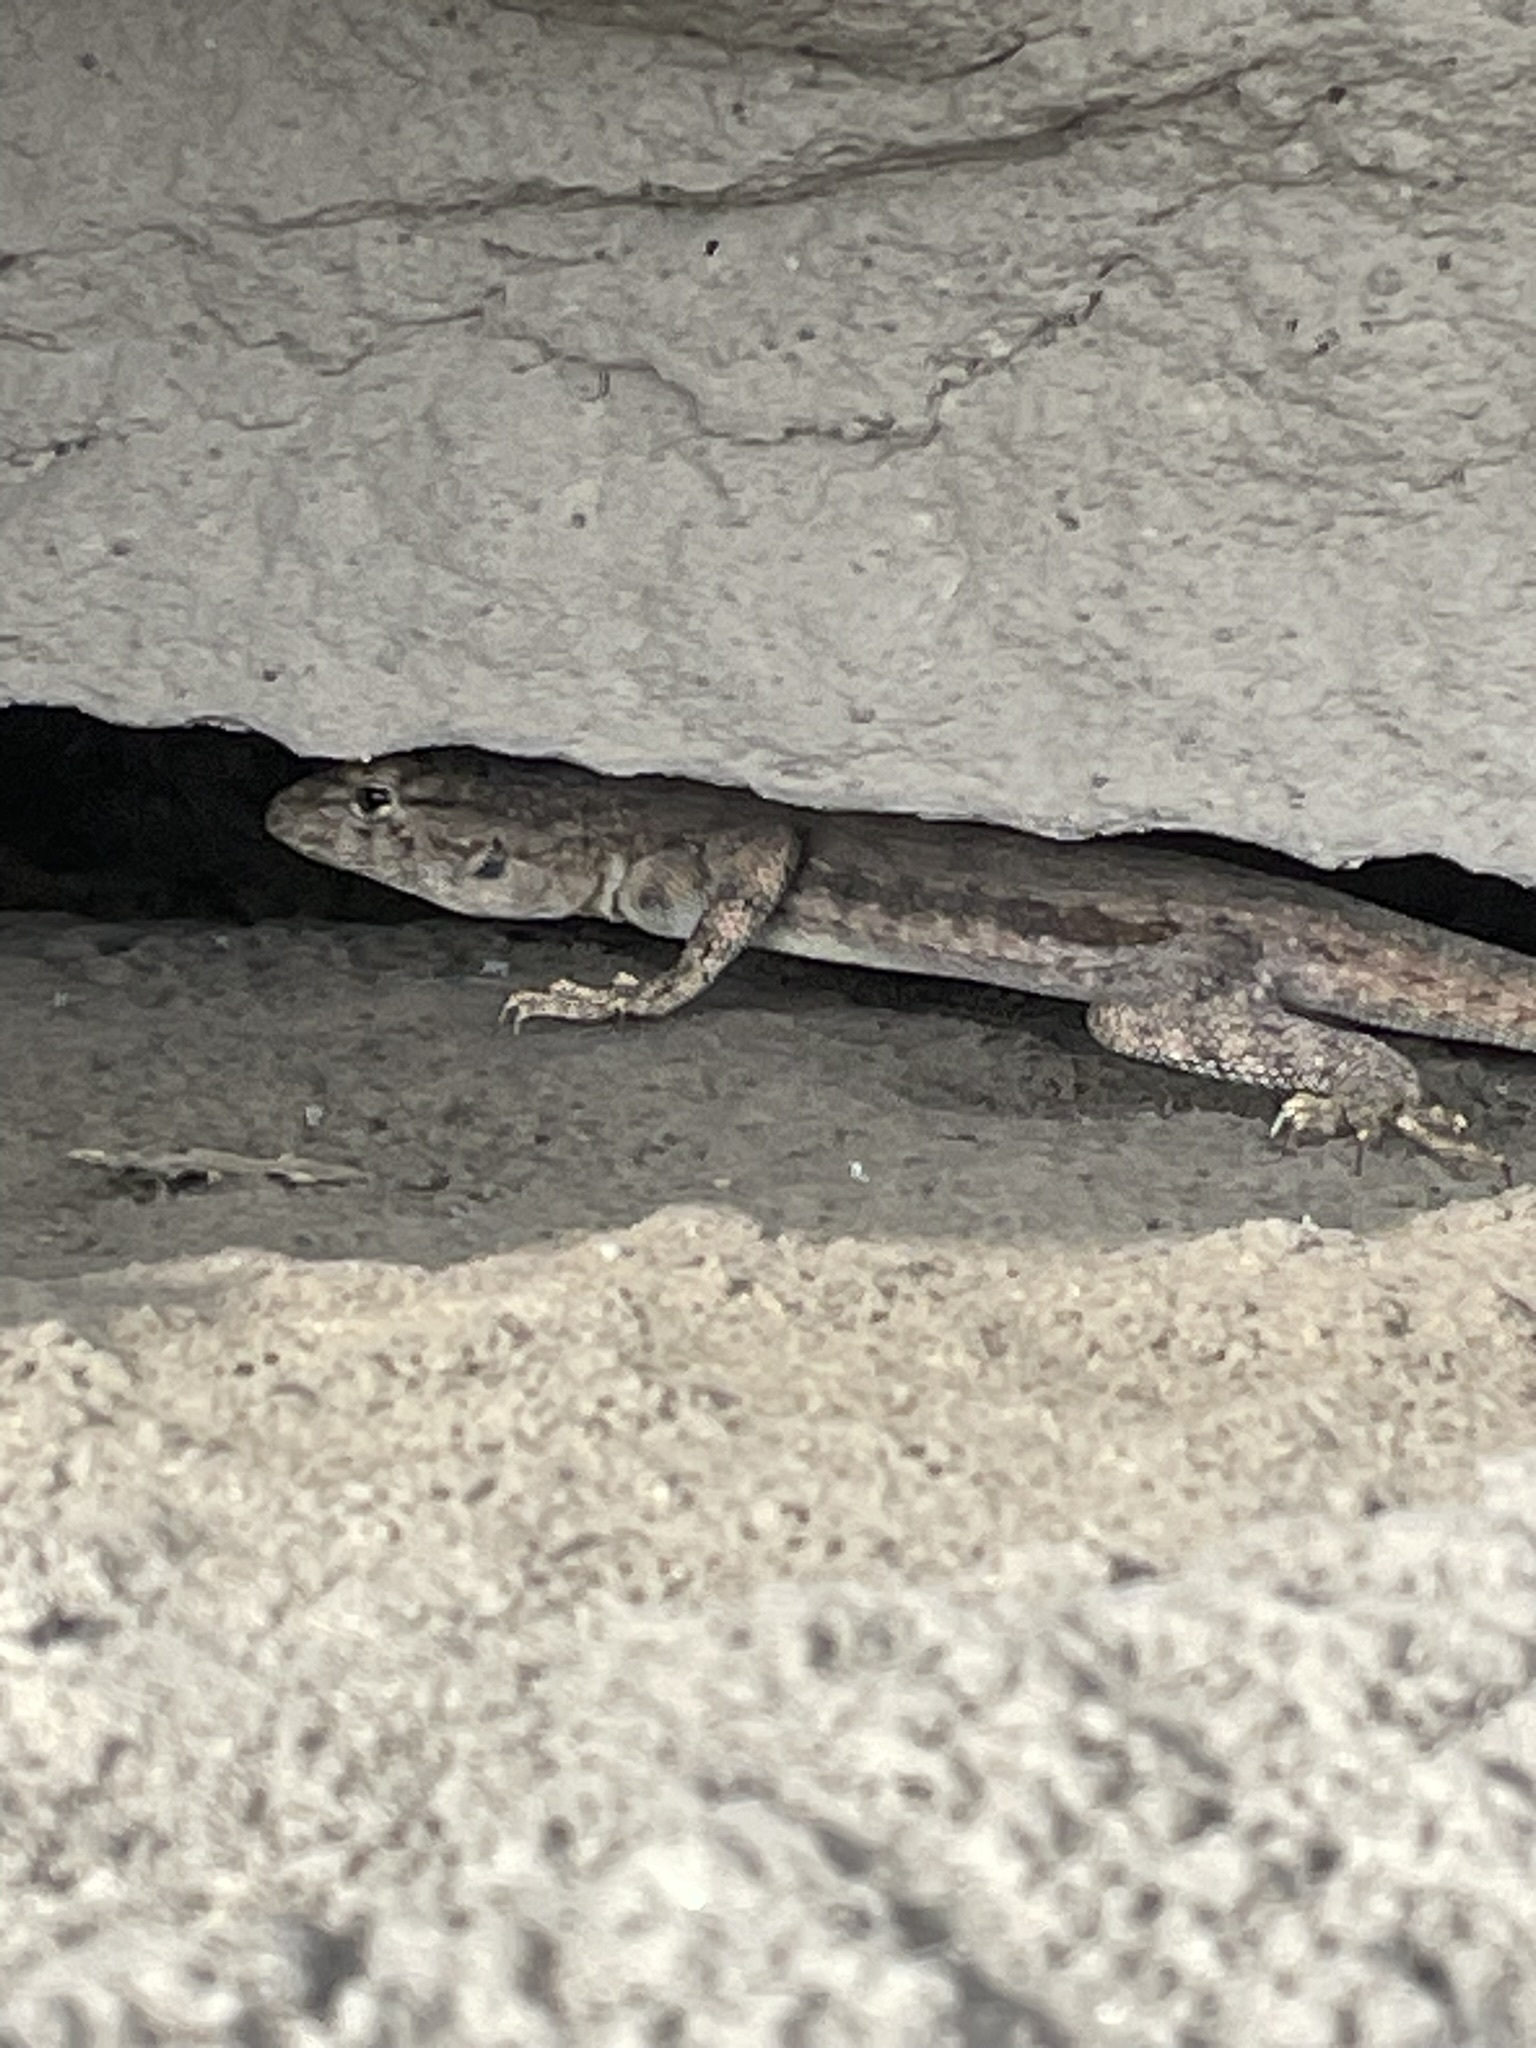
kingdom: Animalia
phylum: Chordata
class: Squamata
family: Tropiduridae
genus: Microlophus
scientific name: Microlophus tigris
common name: Tiger pacific iguana
